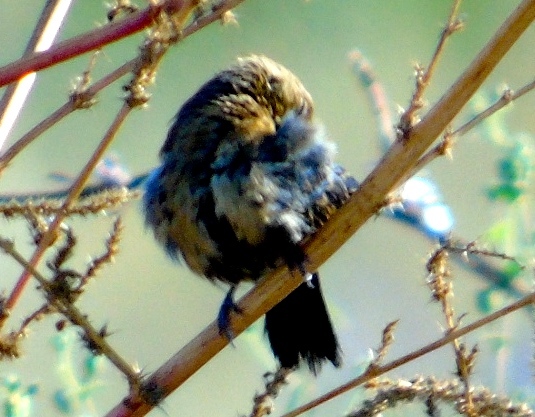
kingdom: Animalia
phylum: Chordata
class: Aves
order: Passeriformes
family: Thraupidae
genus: Volatinia
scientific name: Volatinia jacarina
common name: Blue-black grassquit
